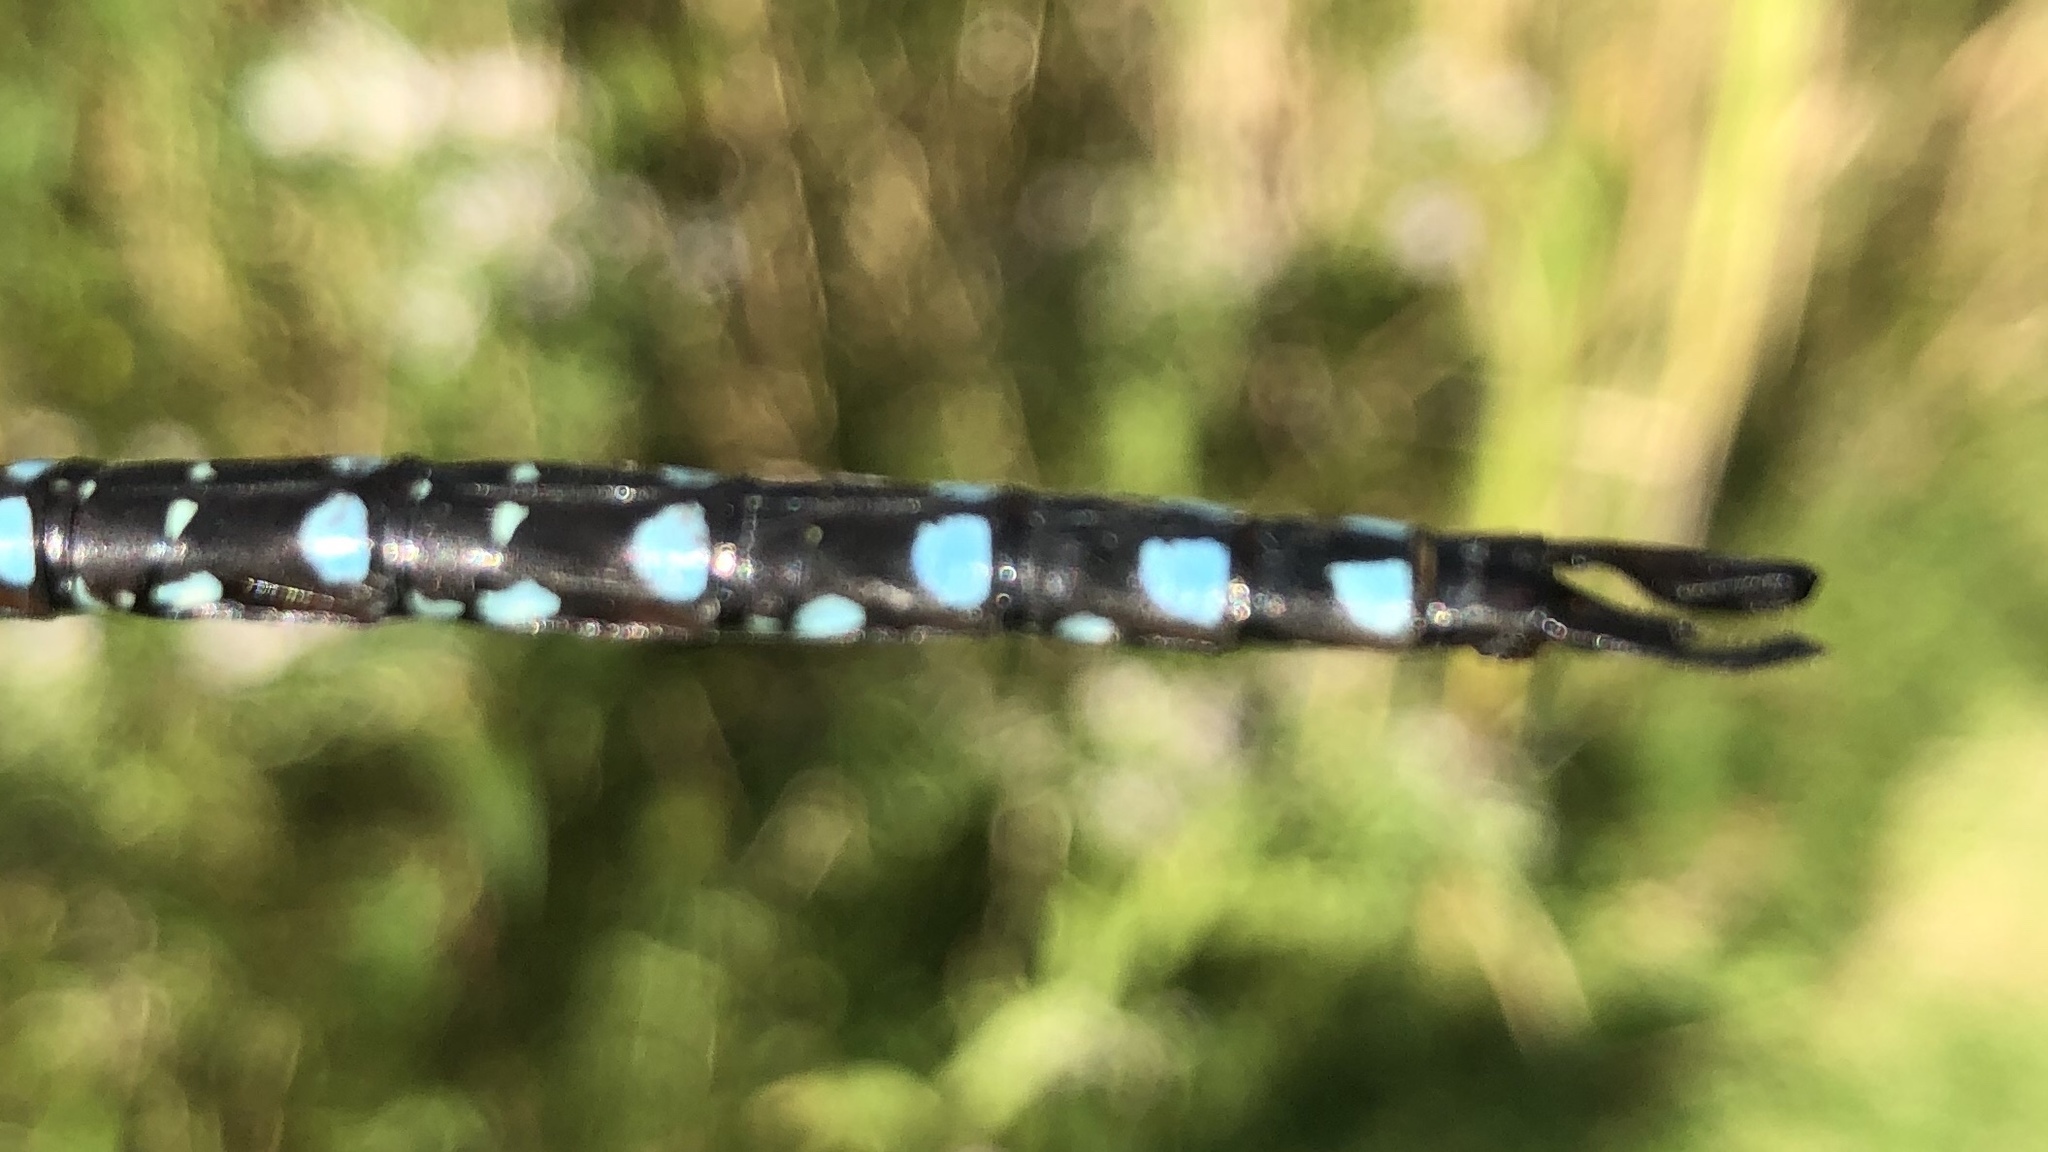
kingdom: Animalia
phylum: Arthropoda
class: Insecta
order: Odonata
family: Aeshnidae
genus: Aeshna
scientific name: Aeshna tuberculifera
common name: Aeschne à tubercules
